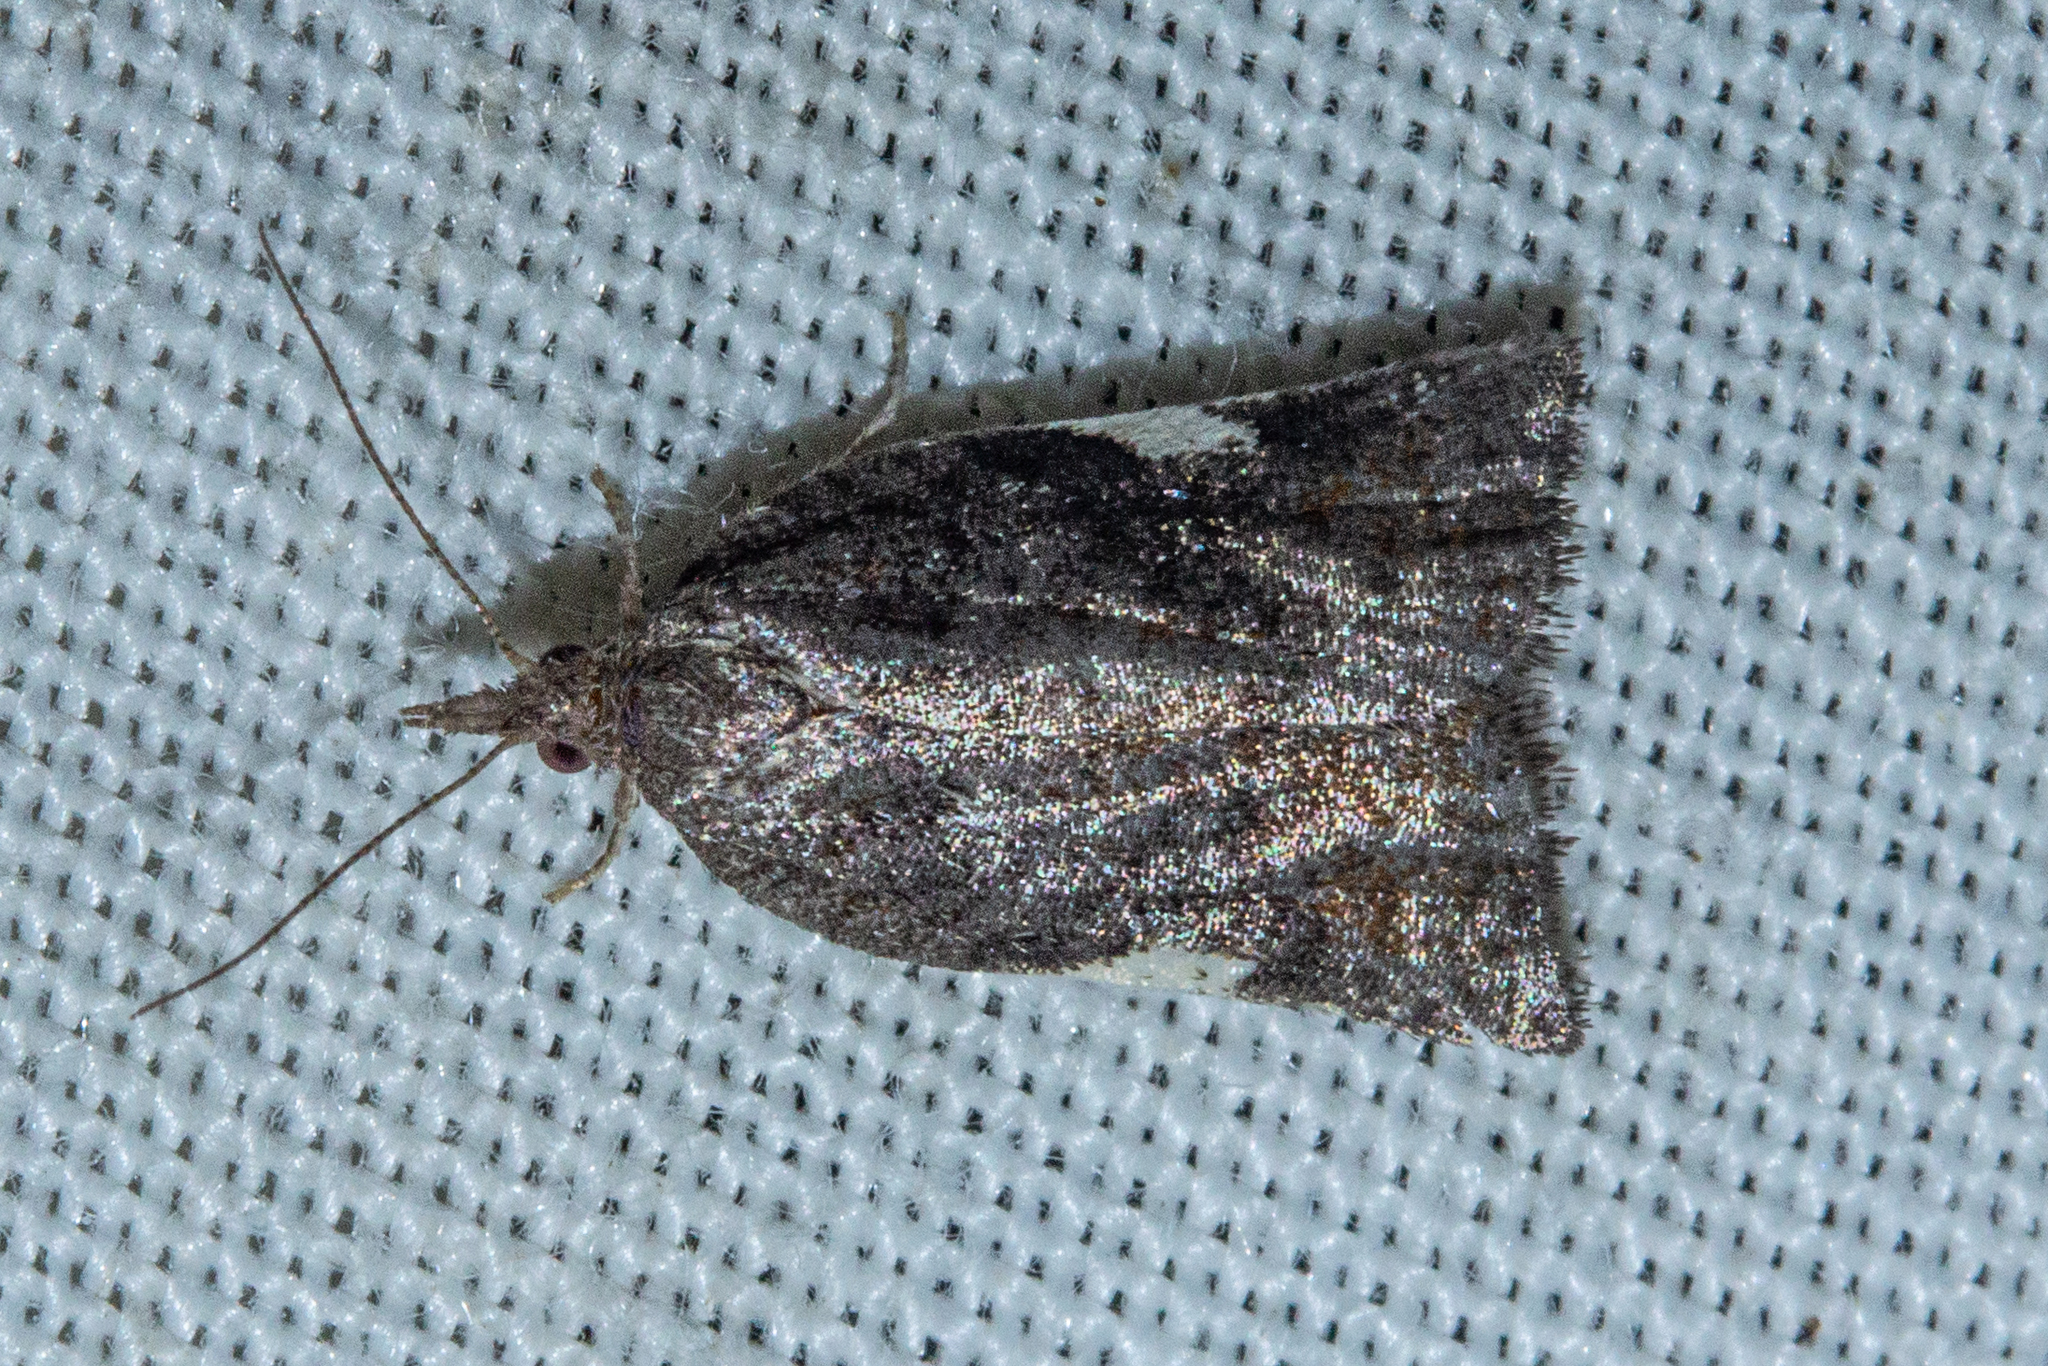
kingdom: Animalia
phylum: Arthropoda
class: Insecta
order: Lepidoptera
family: Tortricidae
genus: Catamacta
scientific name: Catamacta gavisana
